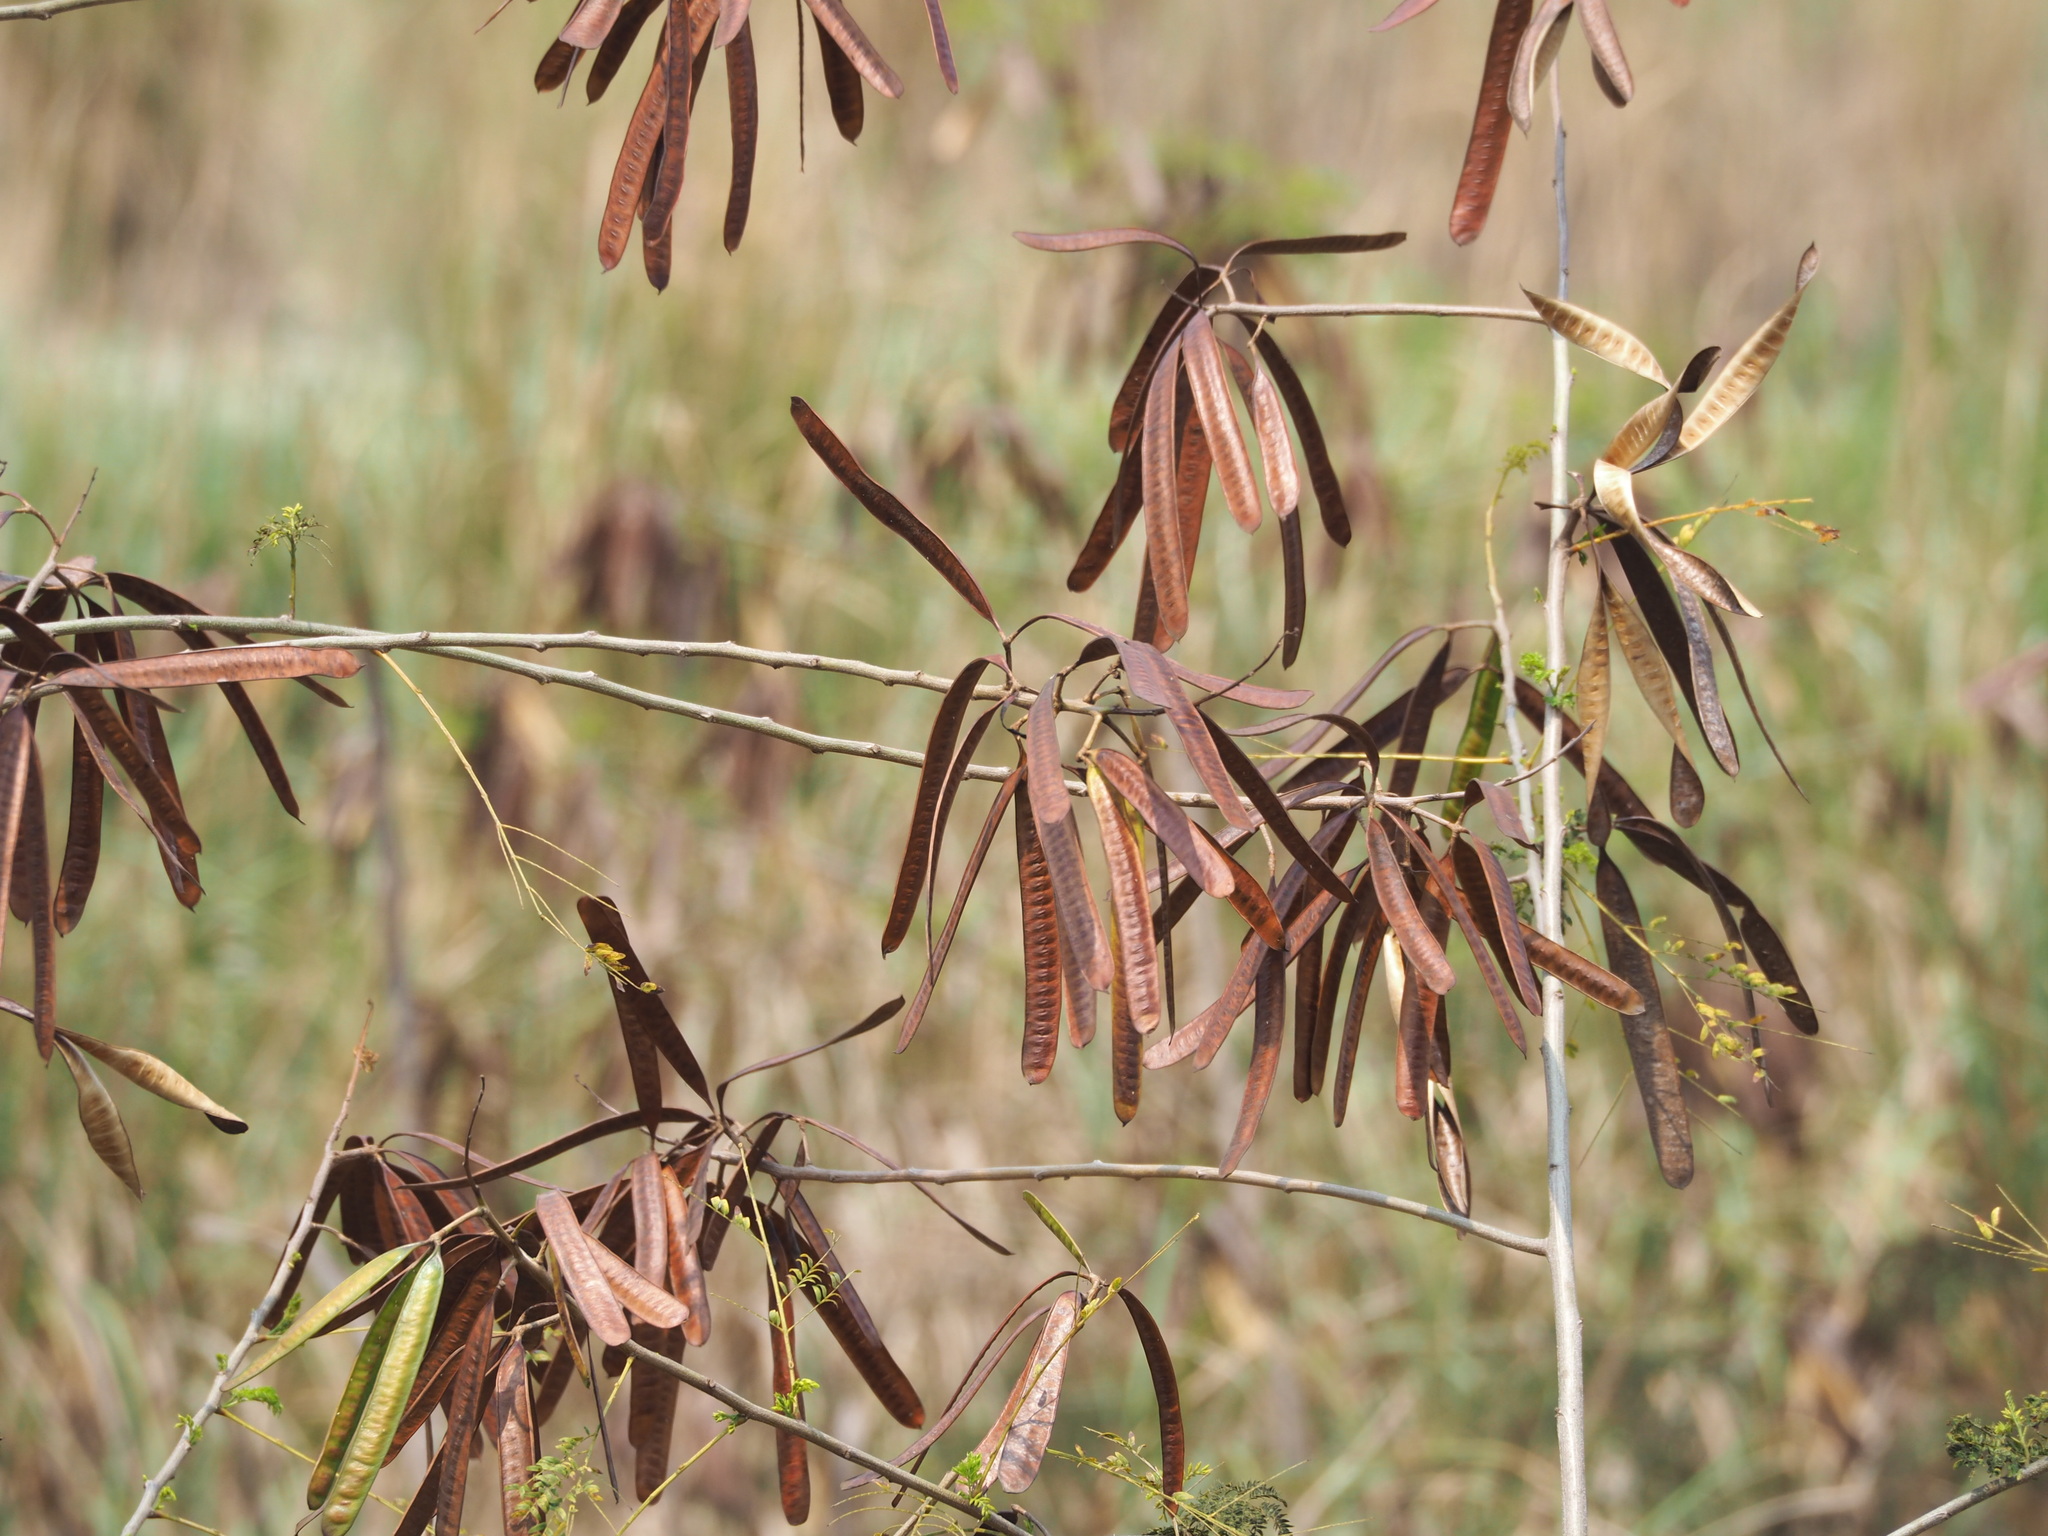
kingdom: Plantae
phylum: Tracheophyta
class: Magnoliopsida
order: Fabales
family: Fabaceae
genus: Leucaena
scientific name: Leucaena leucocephala
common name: White leadtree
